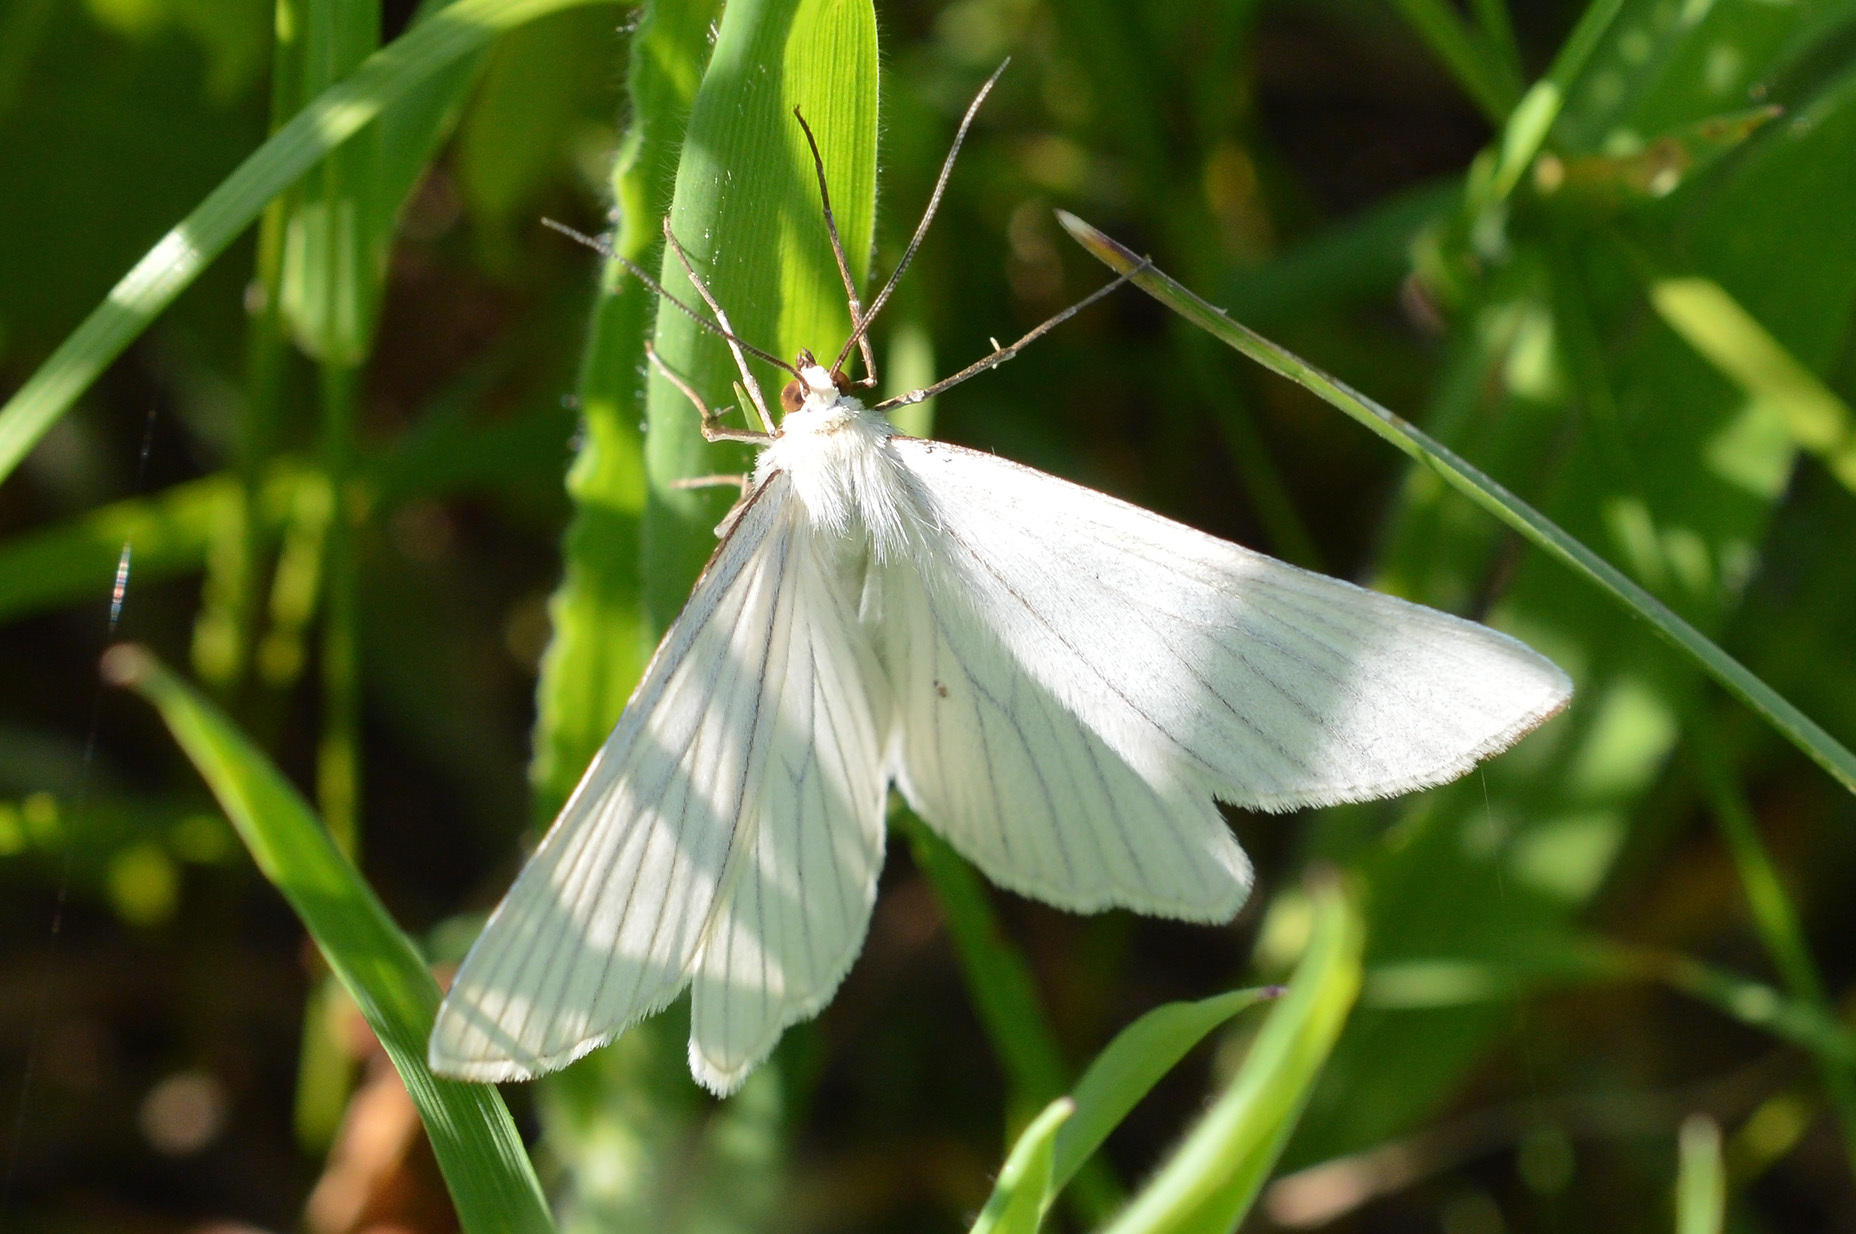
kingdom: Animalia
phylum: Arthropoda
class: Insecta
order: Lepidoptera
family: Geometridae
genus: Siona
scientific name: Siona lineata
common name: Black-veined moth
